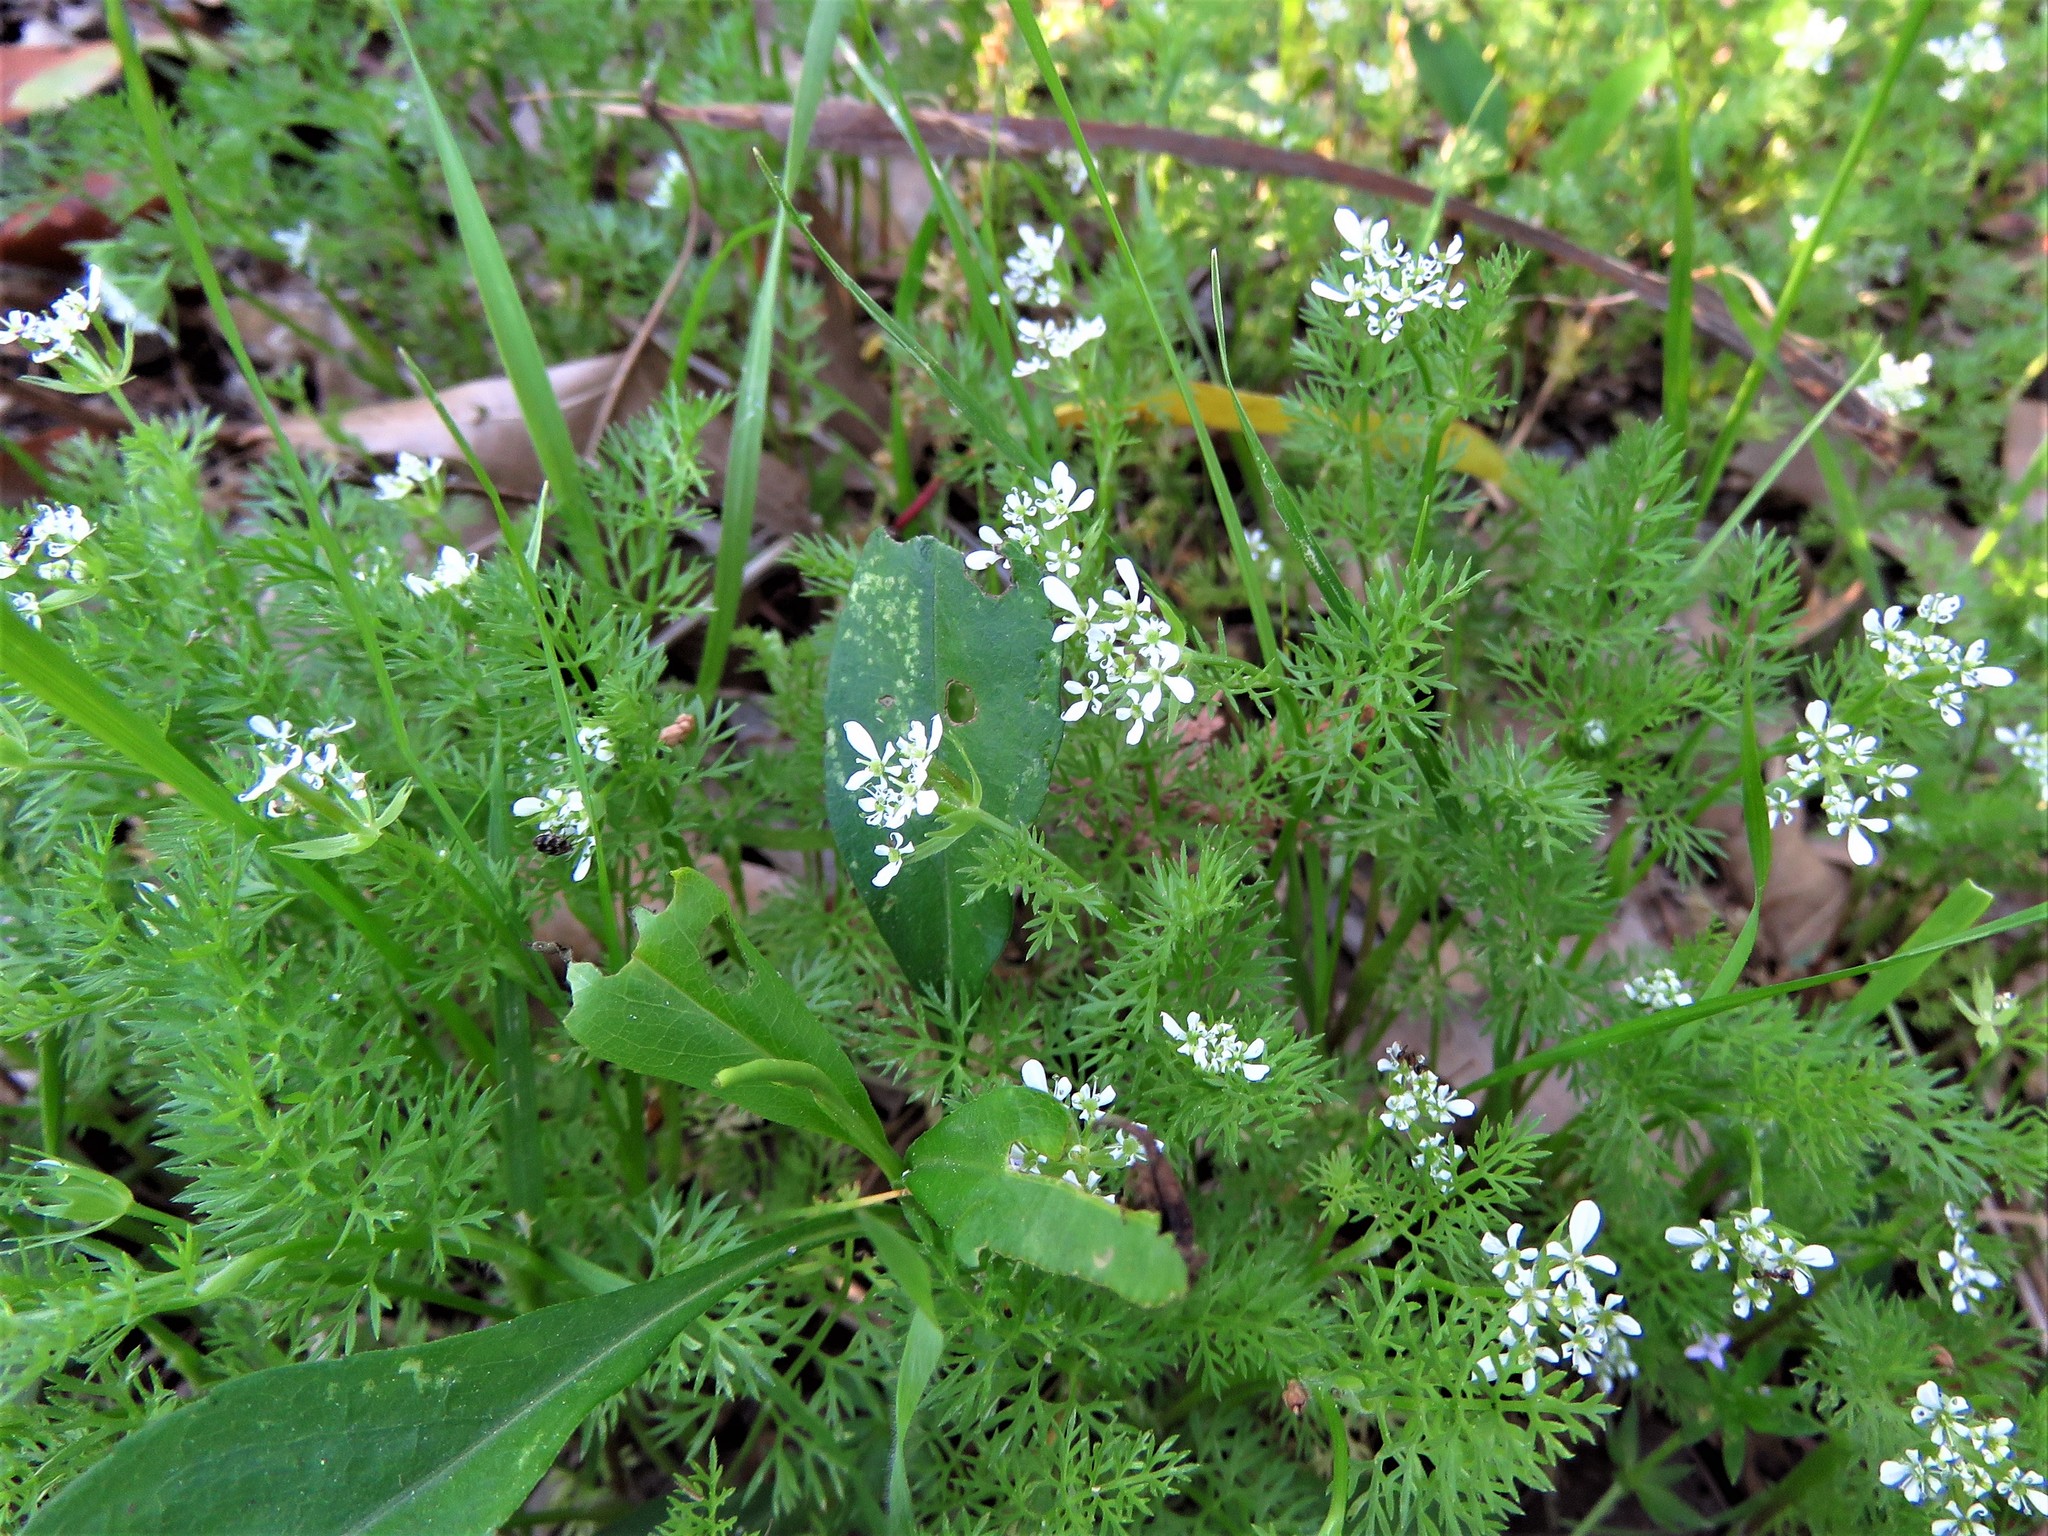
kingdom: Plantae
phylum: Tracheophyta
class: Magnoliopsida
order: Apiales
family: Apiaceae
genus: Scandix
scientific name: Scandix pecten-veneris
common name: Shepherd's-needle
